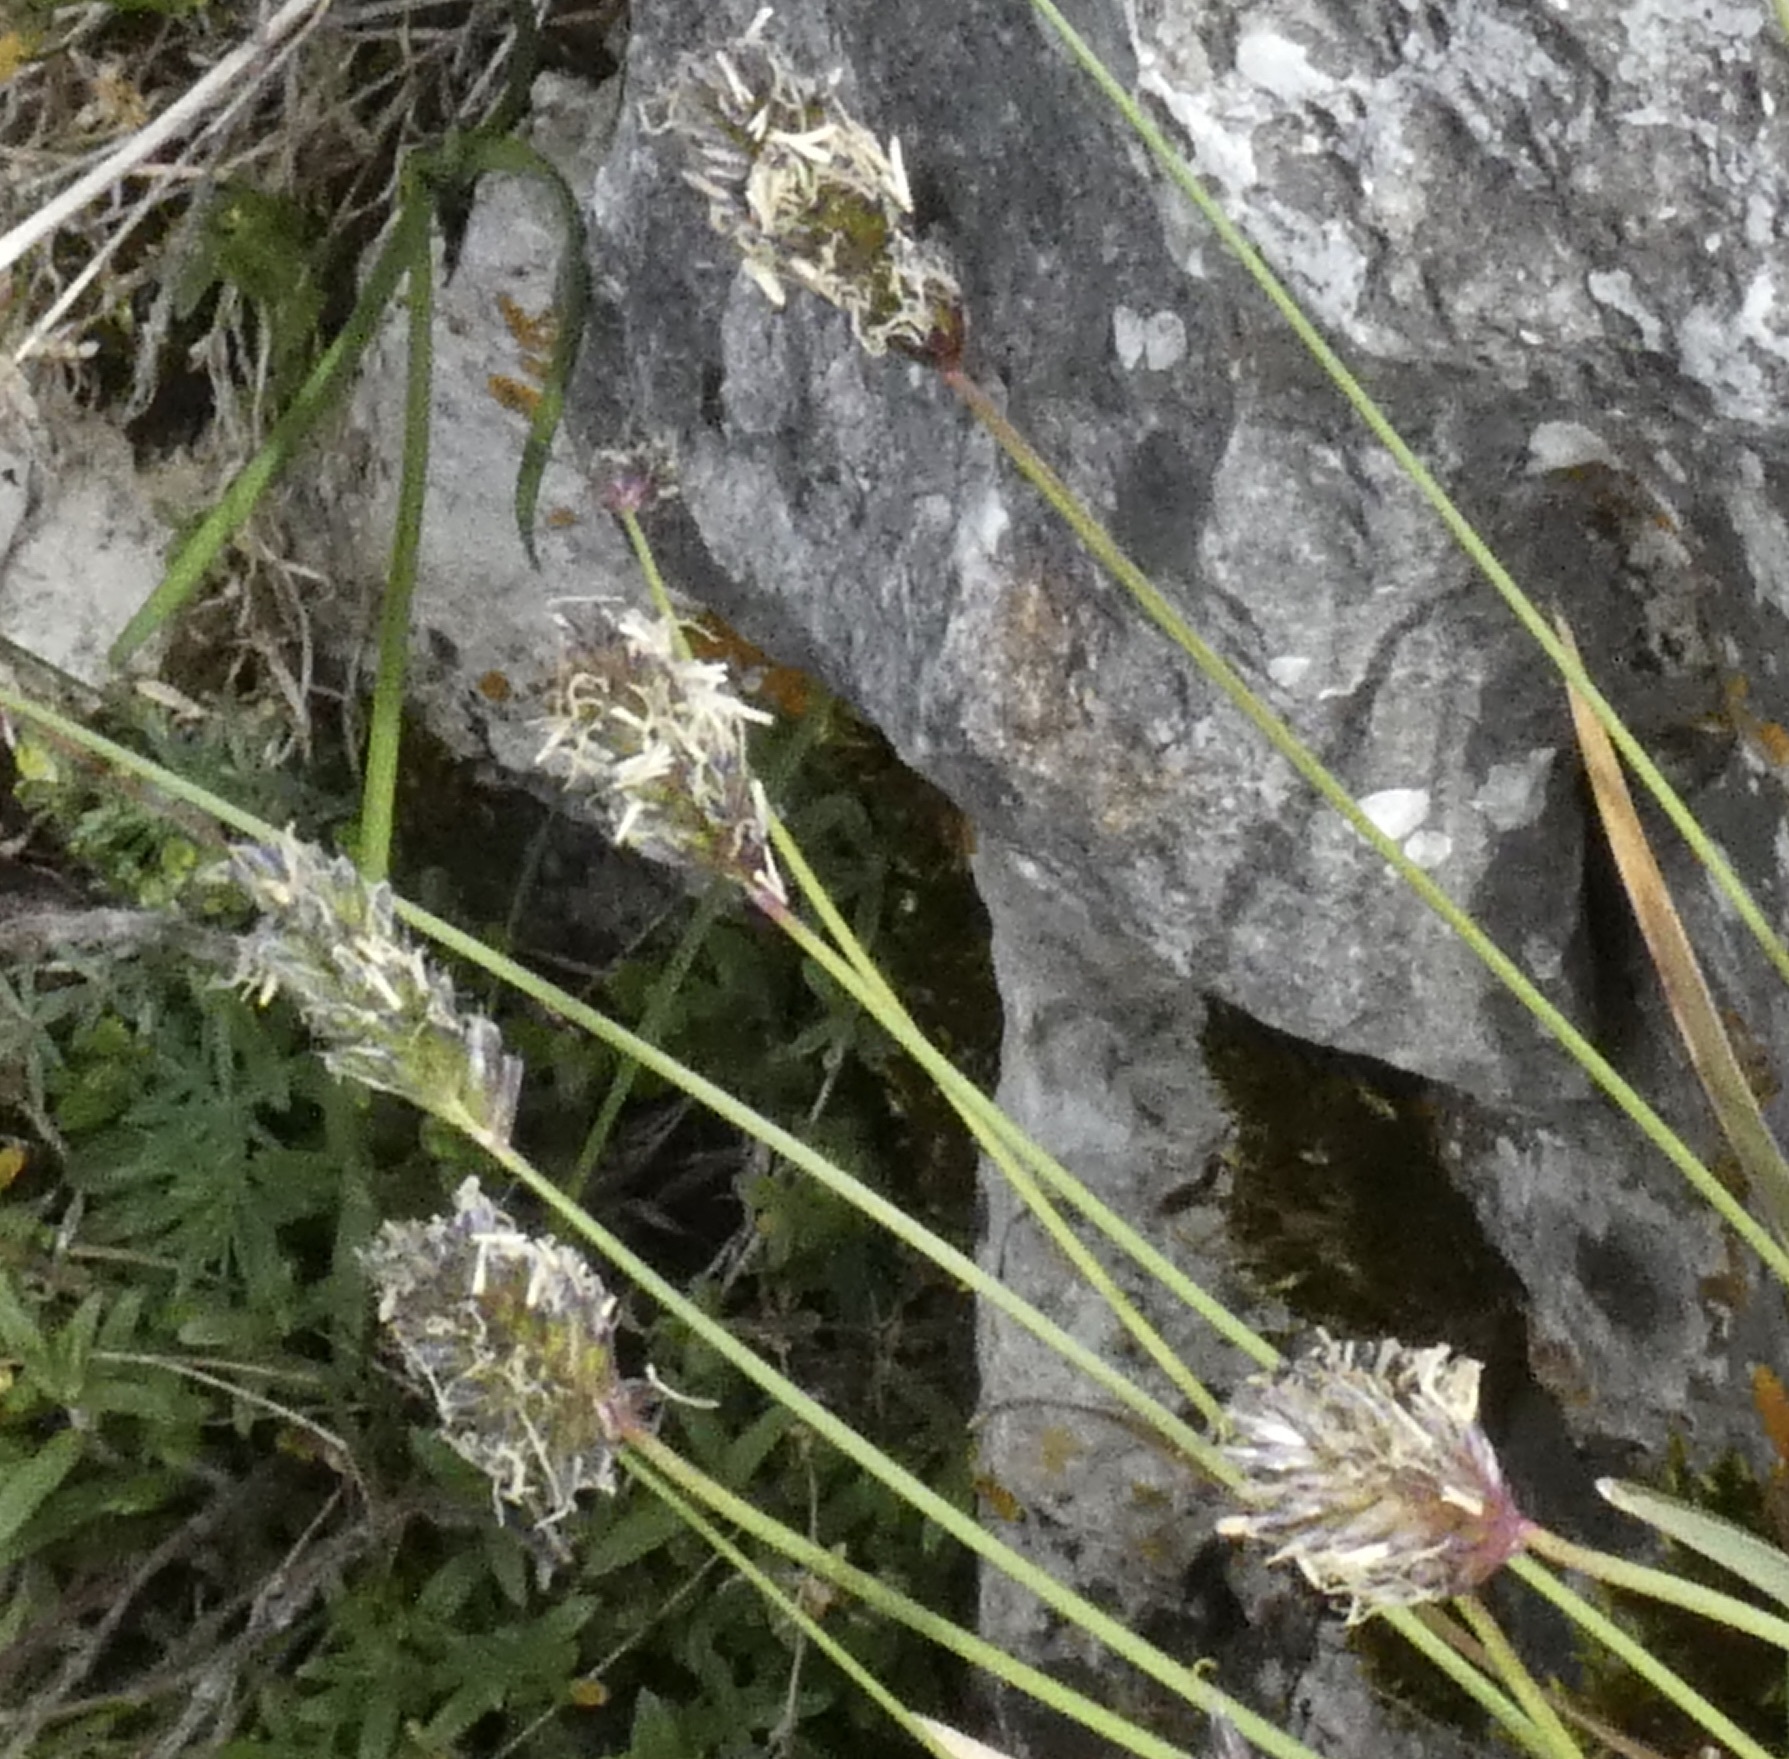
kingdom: Plantae
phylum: Tracheophyta
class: Liliopsida
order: Poales
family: Poaceae
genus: Sesleria
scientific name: Sesleria caerulea
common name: Blue moor-grass
